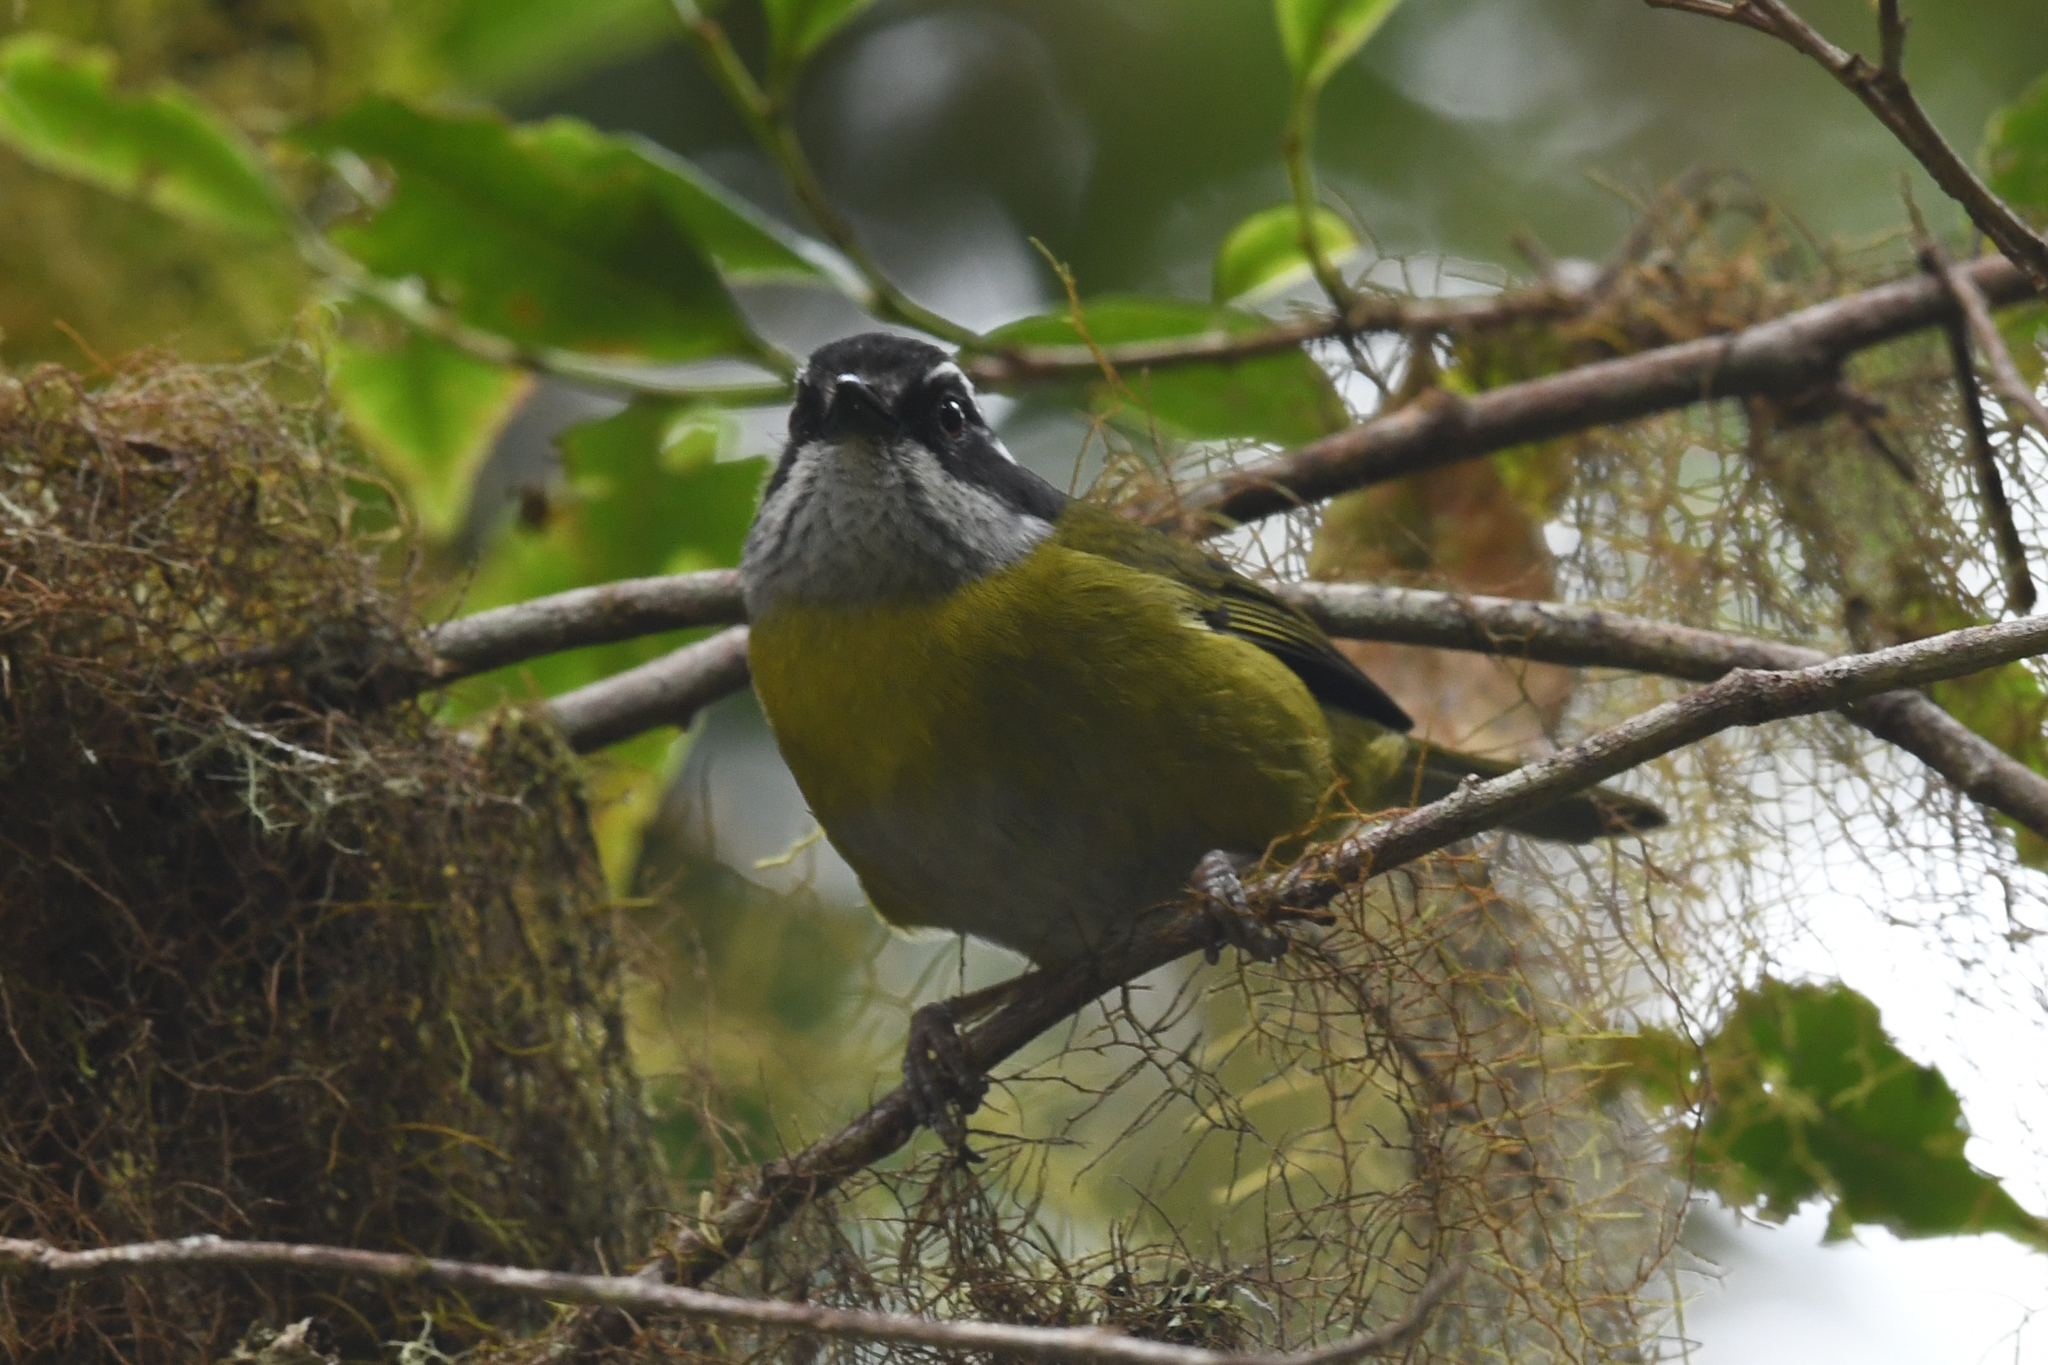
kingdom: Animalia
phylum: Chordata
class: Aves
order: Passeriformes
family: Passerellidae
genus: Chlorospingus
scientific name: Chlorospingus pileatus
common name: Sooty-capped bush-tanager
